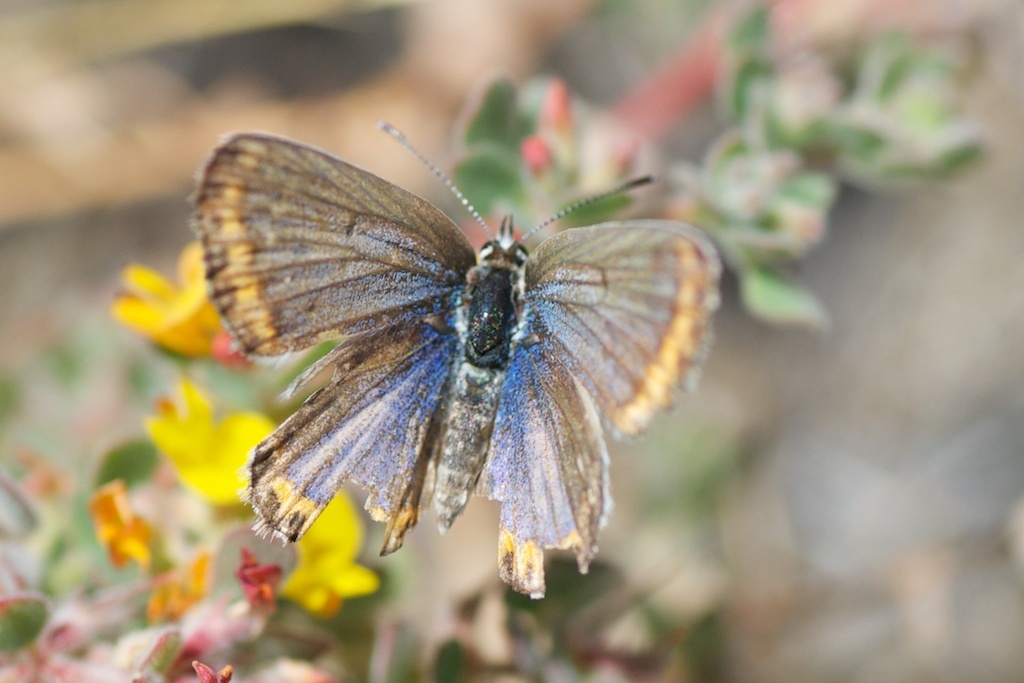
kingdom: Animalia
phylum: Arthropoda
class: Insecta
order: Lepidoptera
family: Lycaenidae
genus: Lycaeides
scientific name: Lycaeides melissa
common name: Melissa blue
